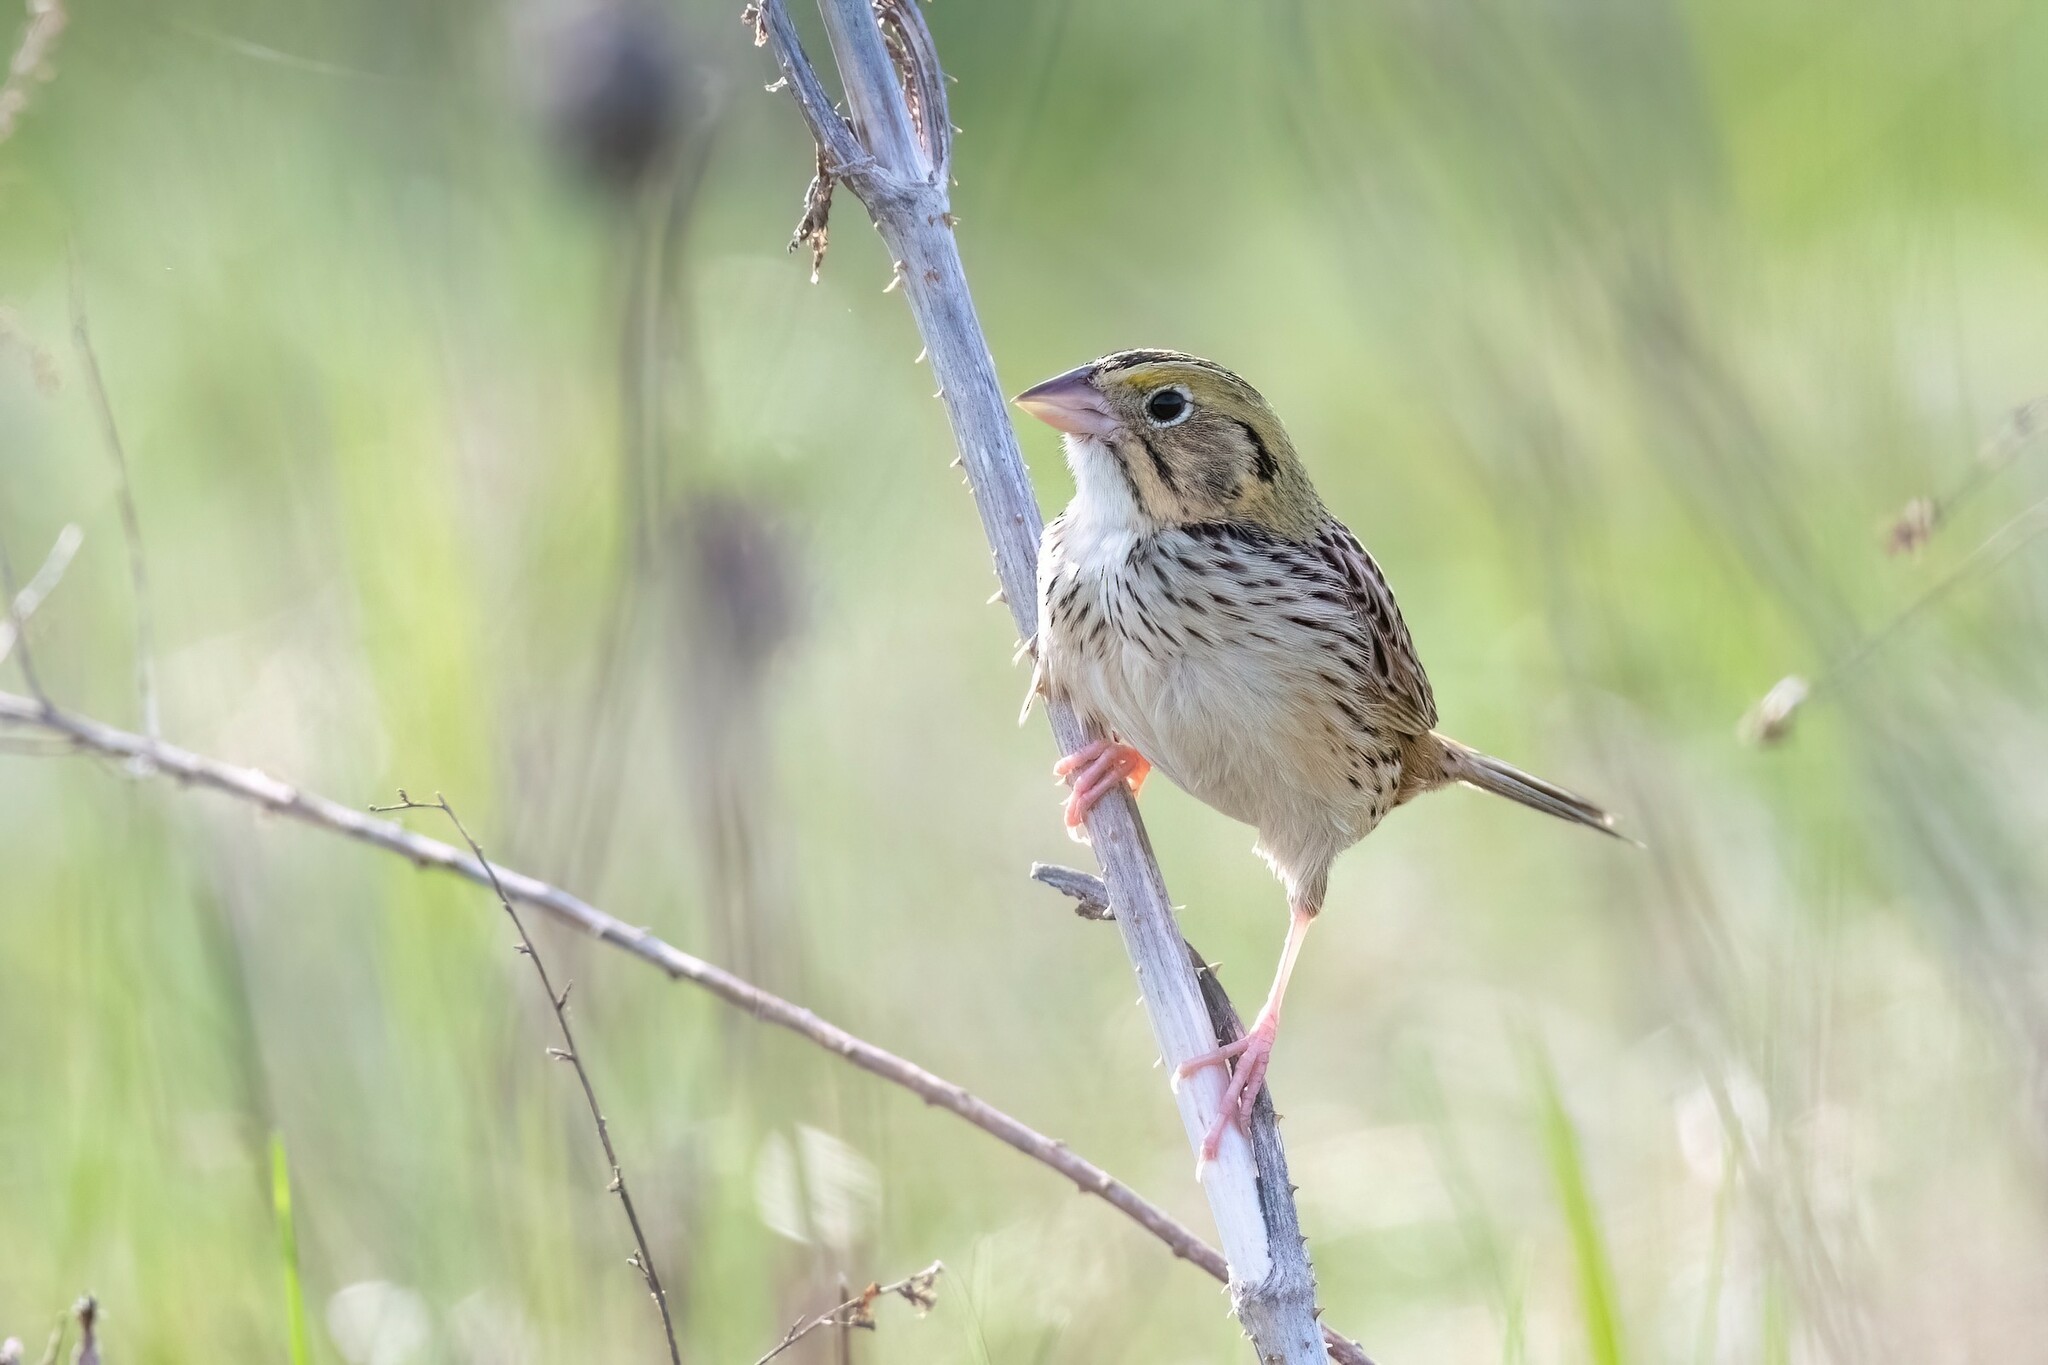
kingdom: Animalia
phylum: Chordata
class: Aves
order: Passeriformes
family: Passerellidae
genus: Centronyx
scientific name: Centronyx henslowii
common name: Henslow's sparrow
